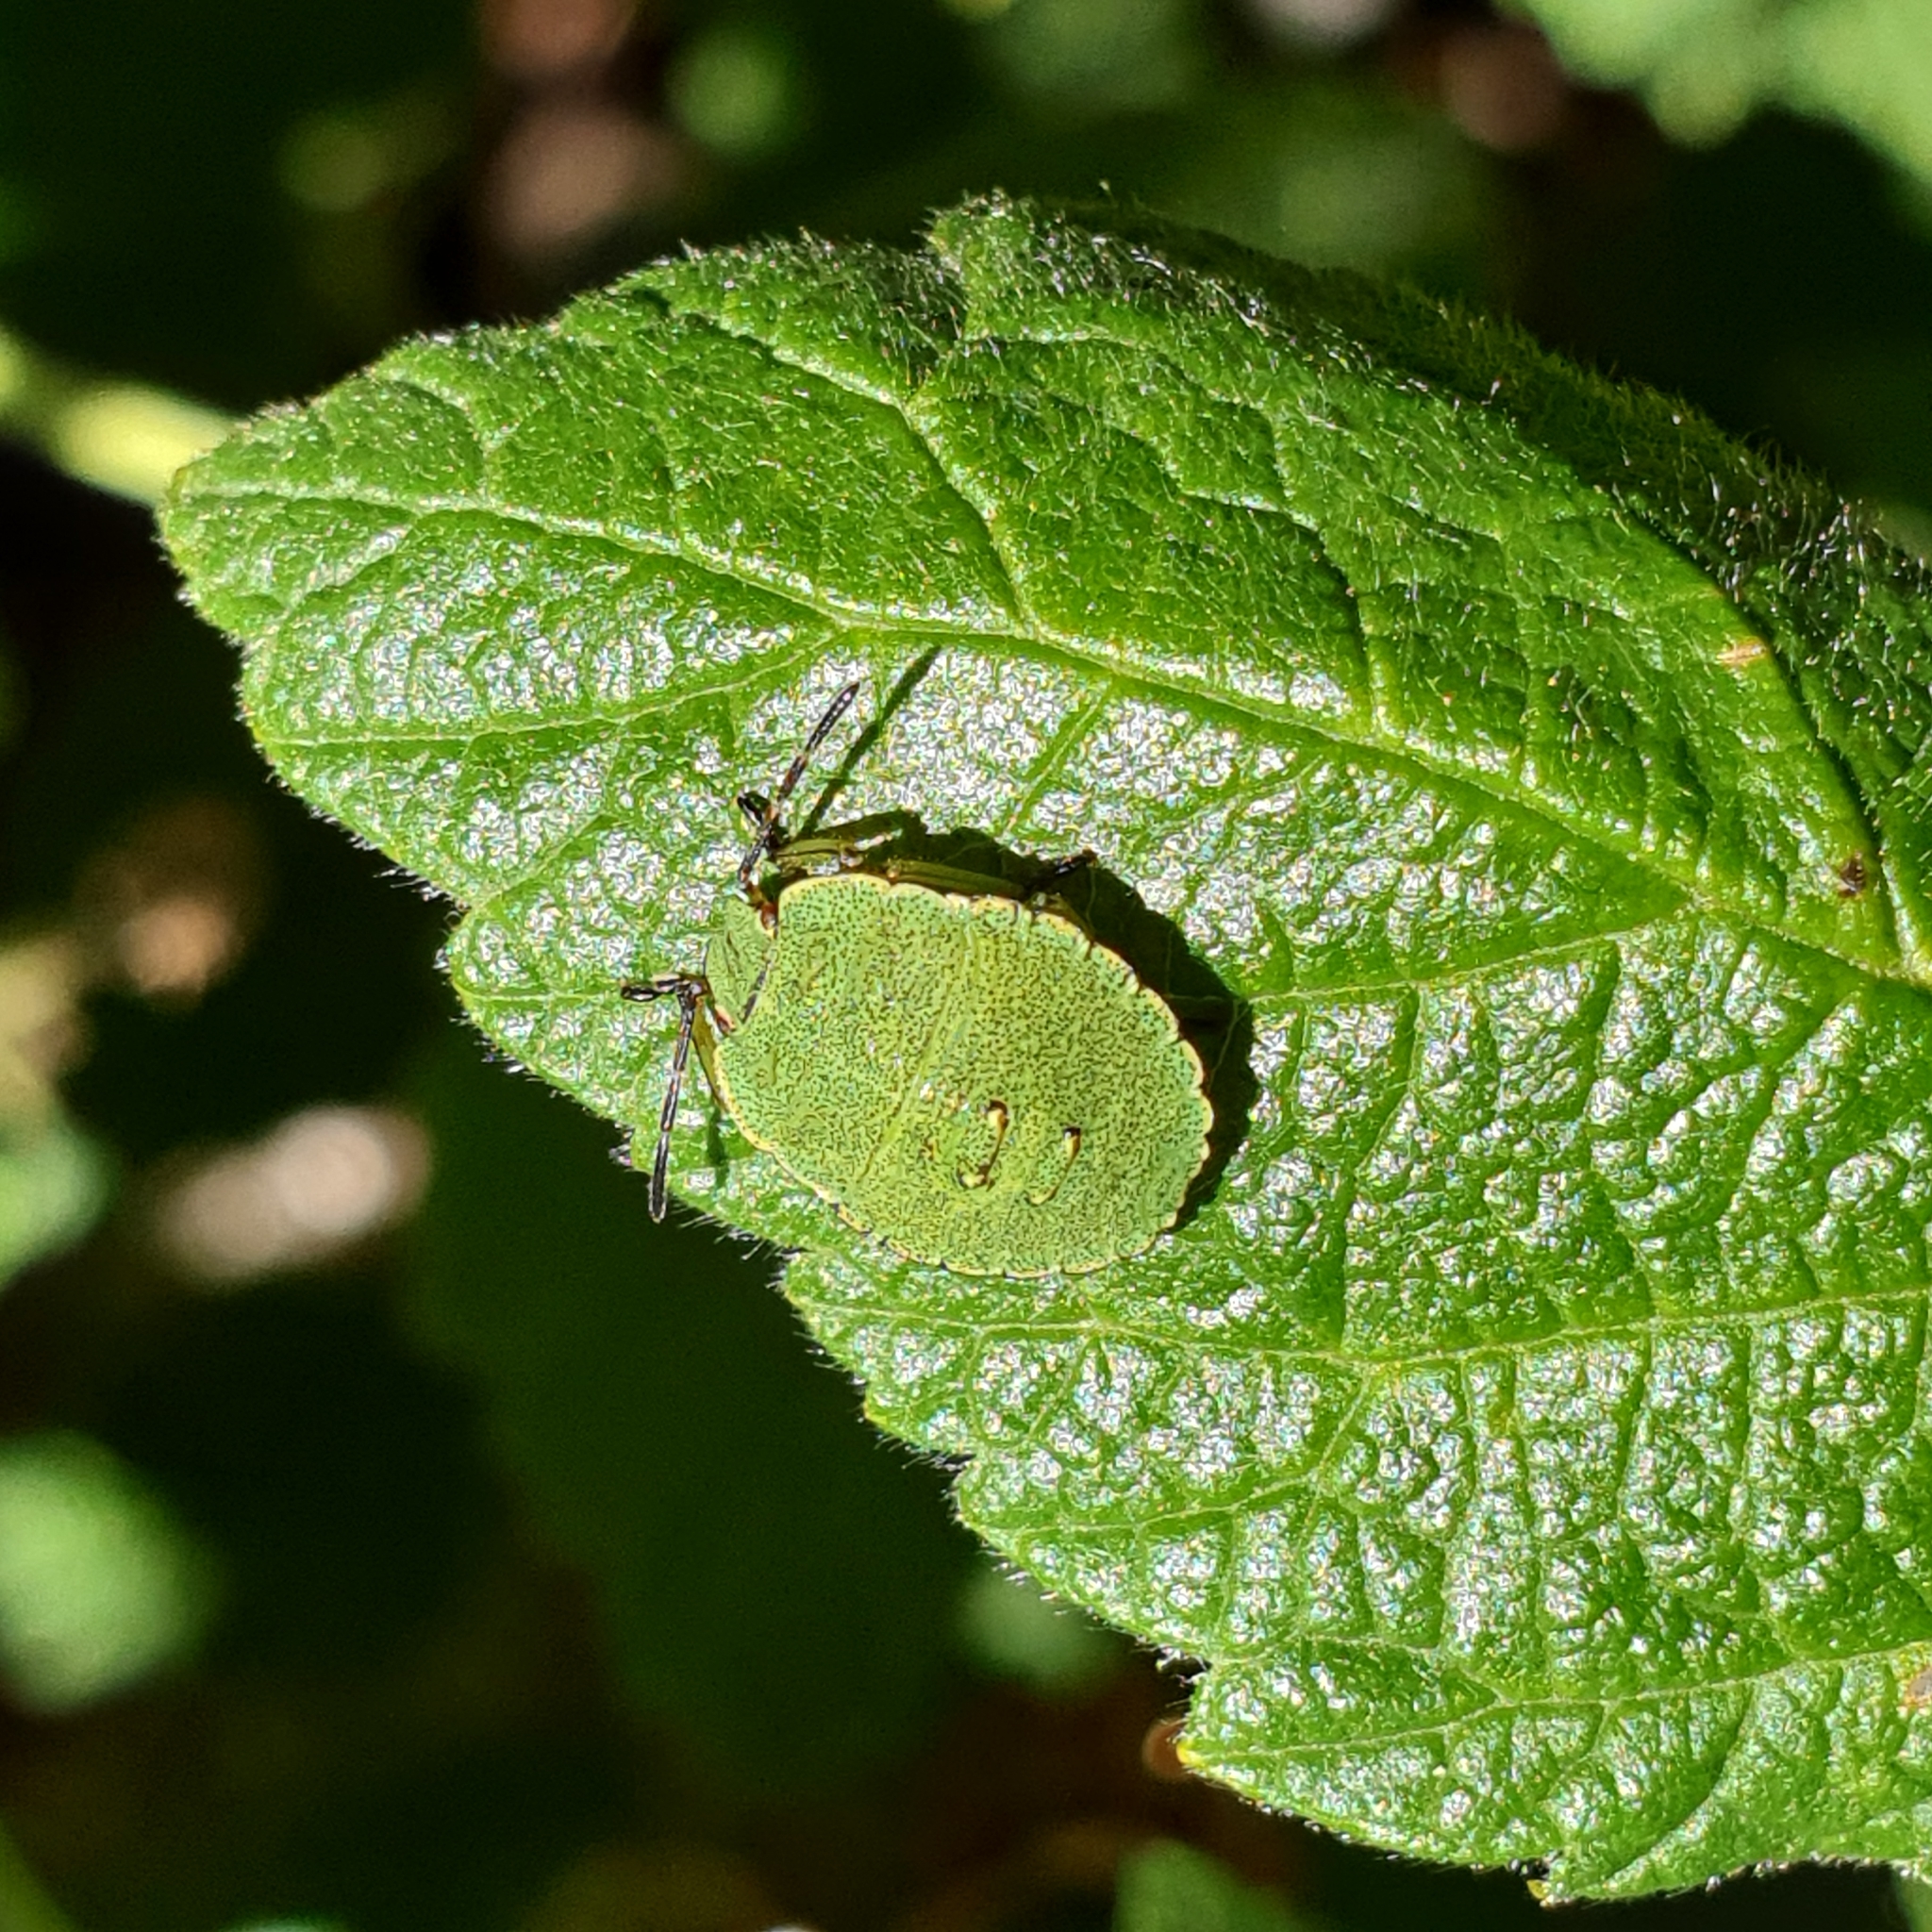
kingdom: Animalia
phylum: Arthropoda
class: Insecta
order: Hemiptera
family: Pentatomidae
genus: Palomena
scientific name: Palomena prasina
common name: Green shieldbug
